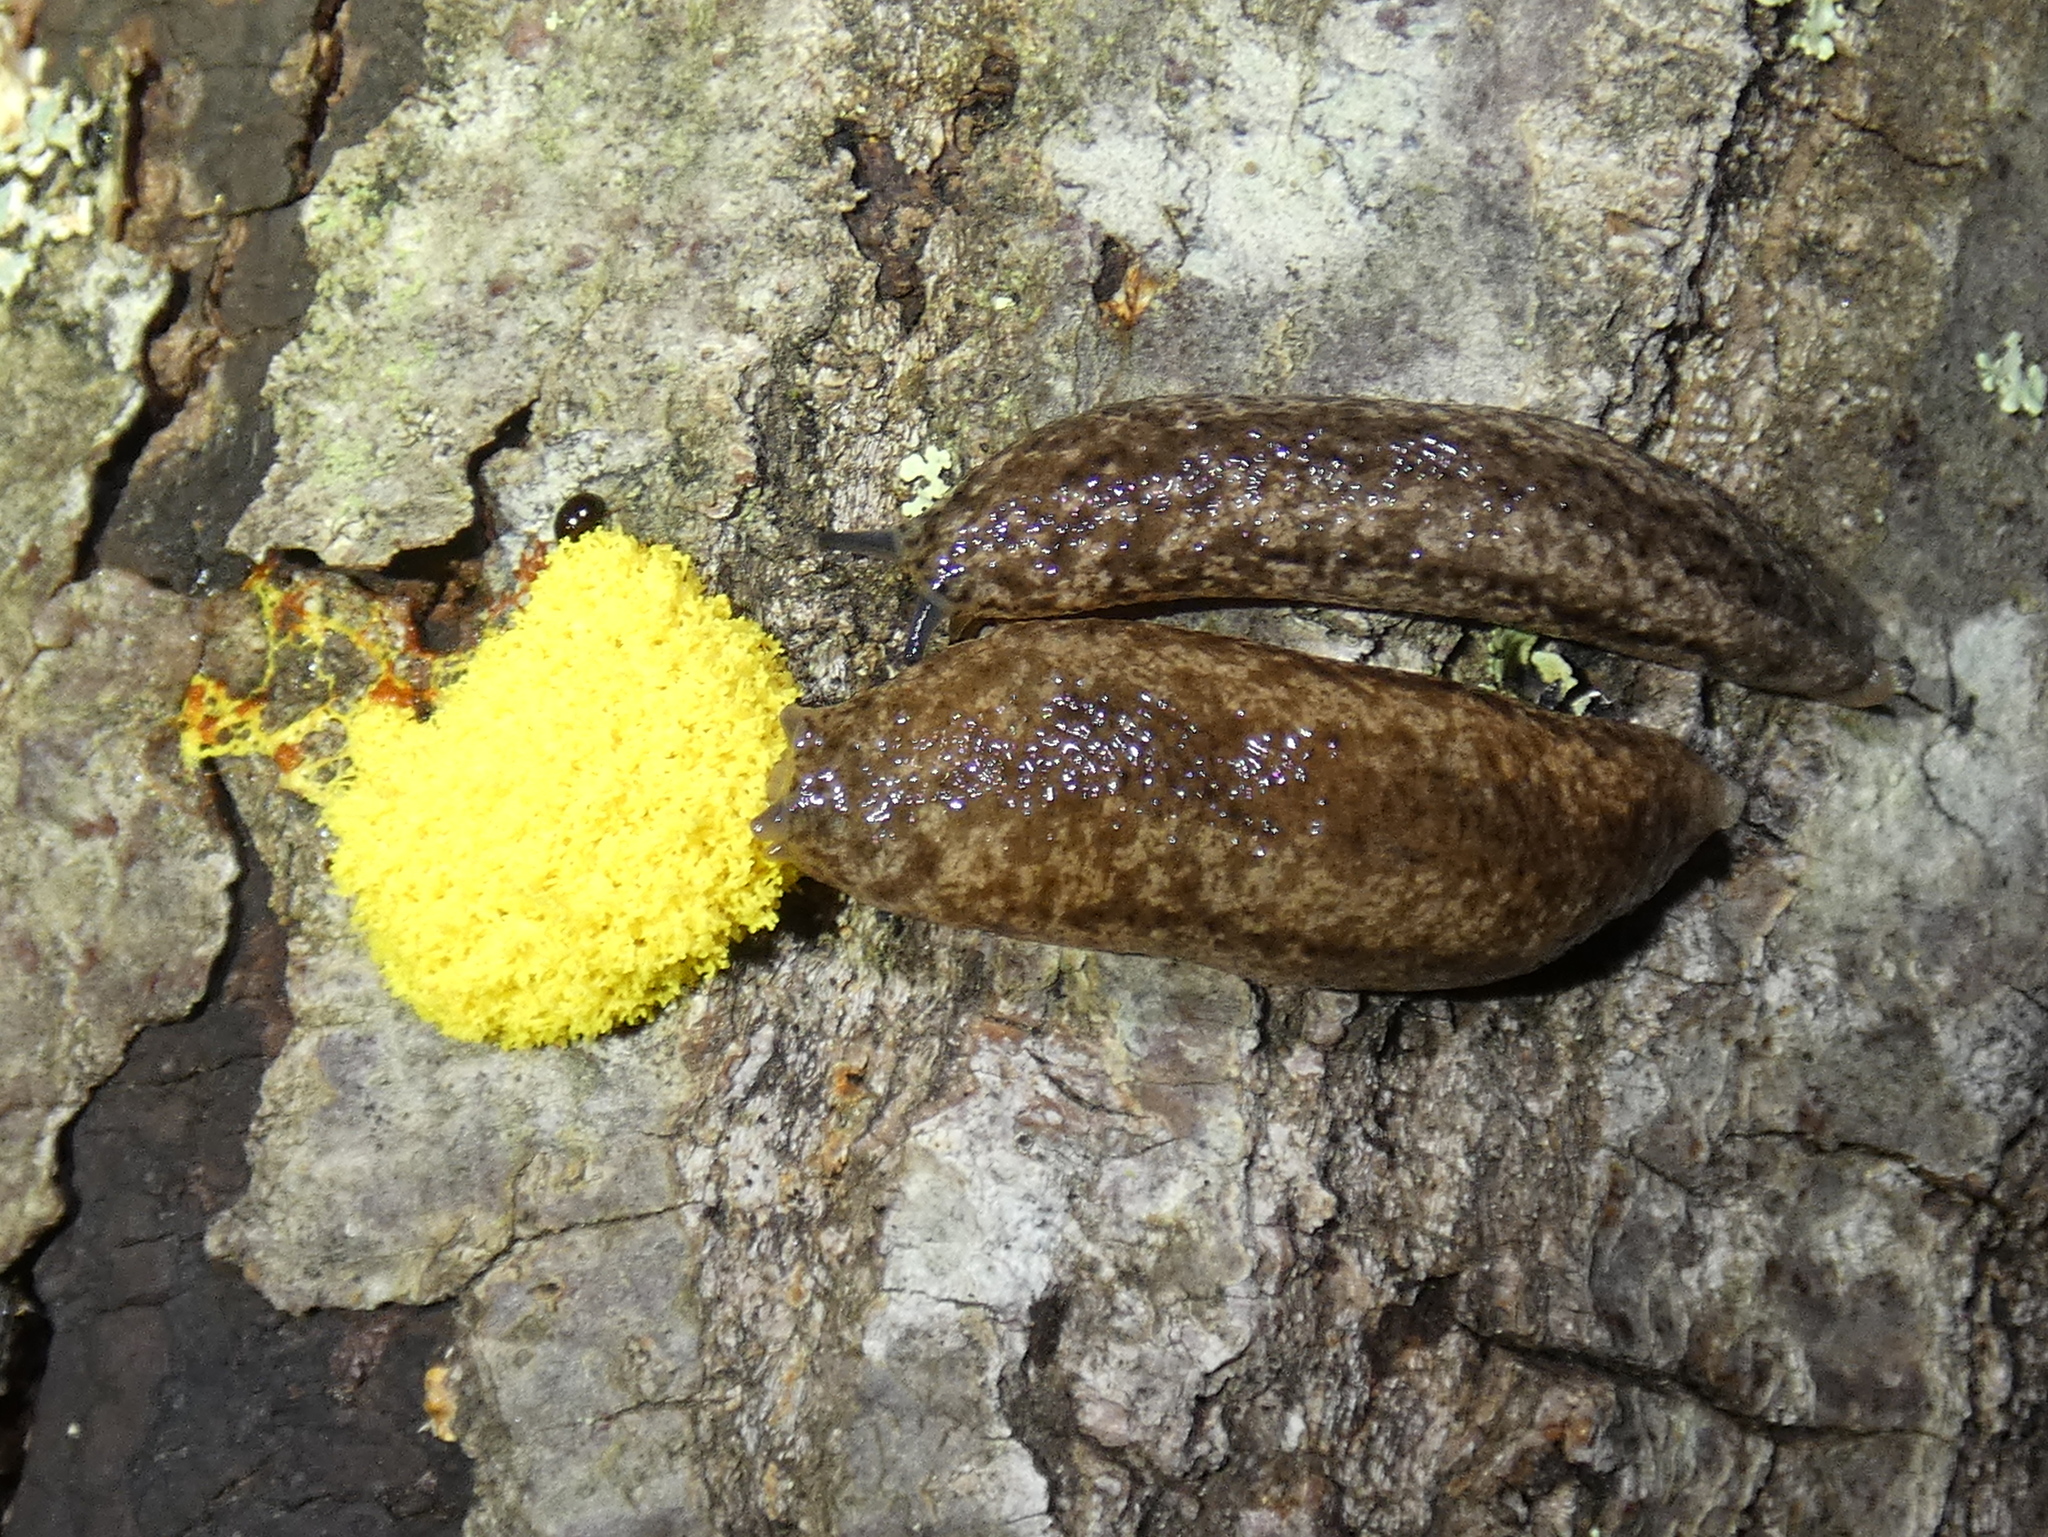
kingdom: Animalia
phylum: Mollusca
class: Gastropoda
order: Stylommatophora
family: Philomycidae
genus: Philomycus
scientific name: Philomycus togatus
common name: Toga mantleslug
